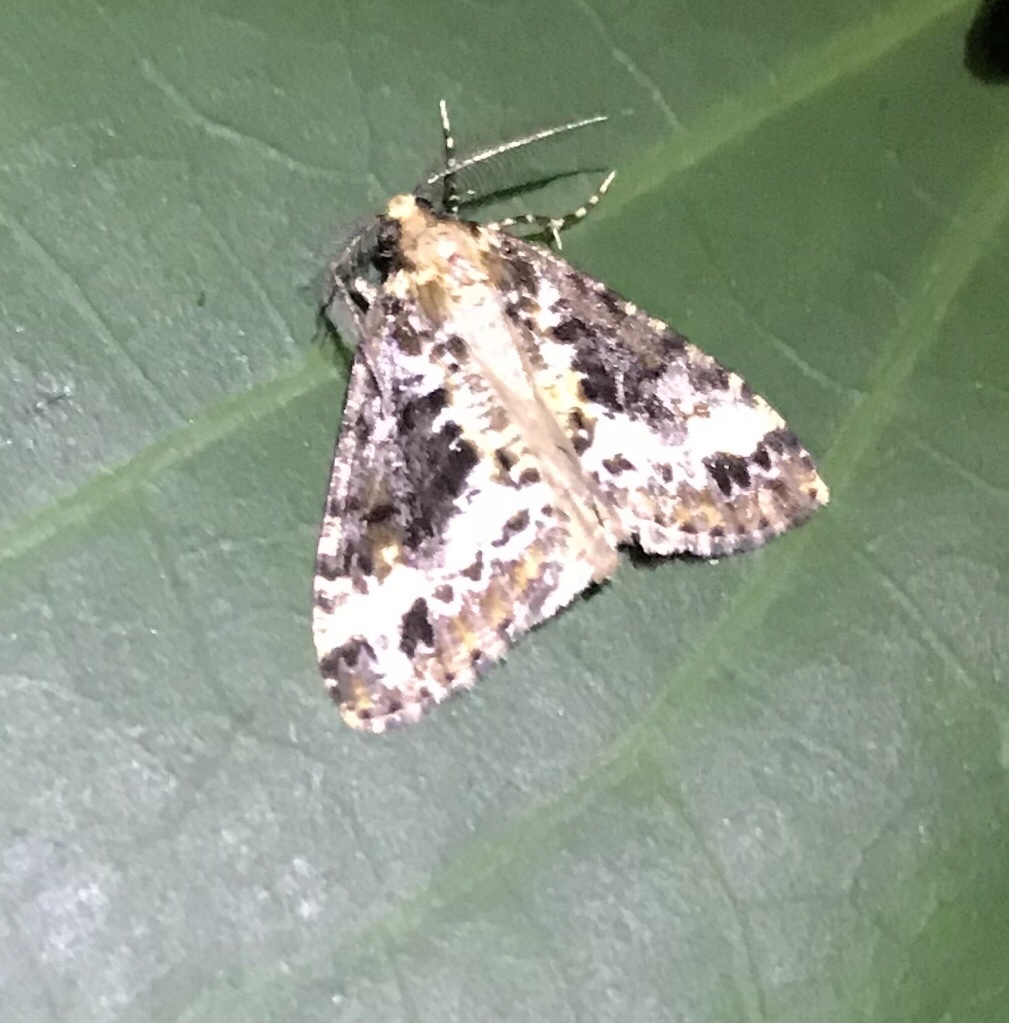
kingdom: Animalia
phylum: Arthropoda
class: Insecta
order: Lepidoptera
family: Geometridae
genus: Pseudocoremia
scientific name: Pseudocoremia leucelaea
